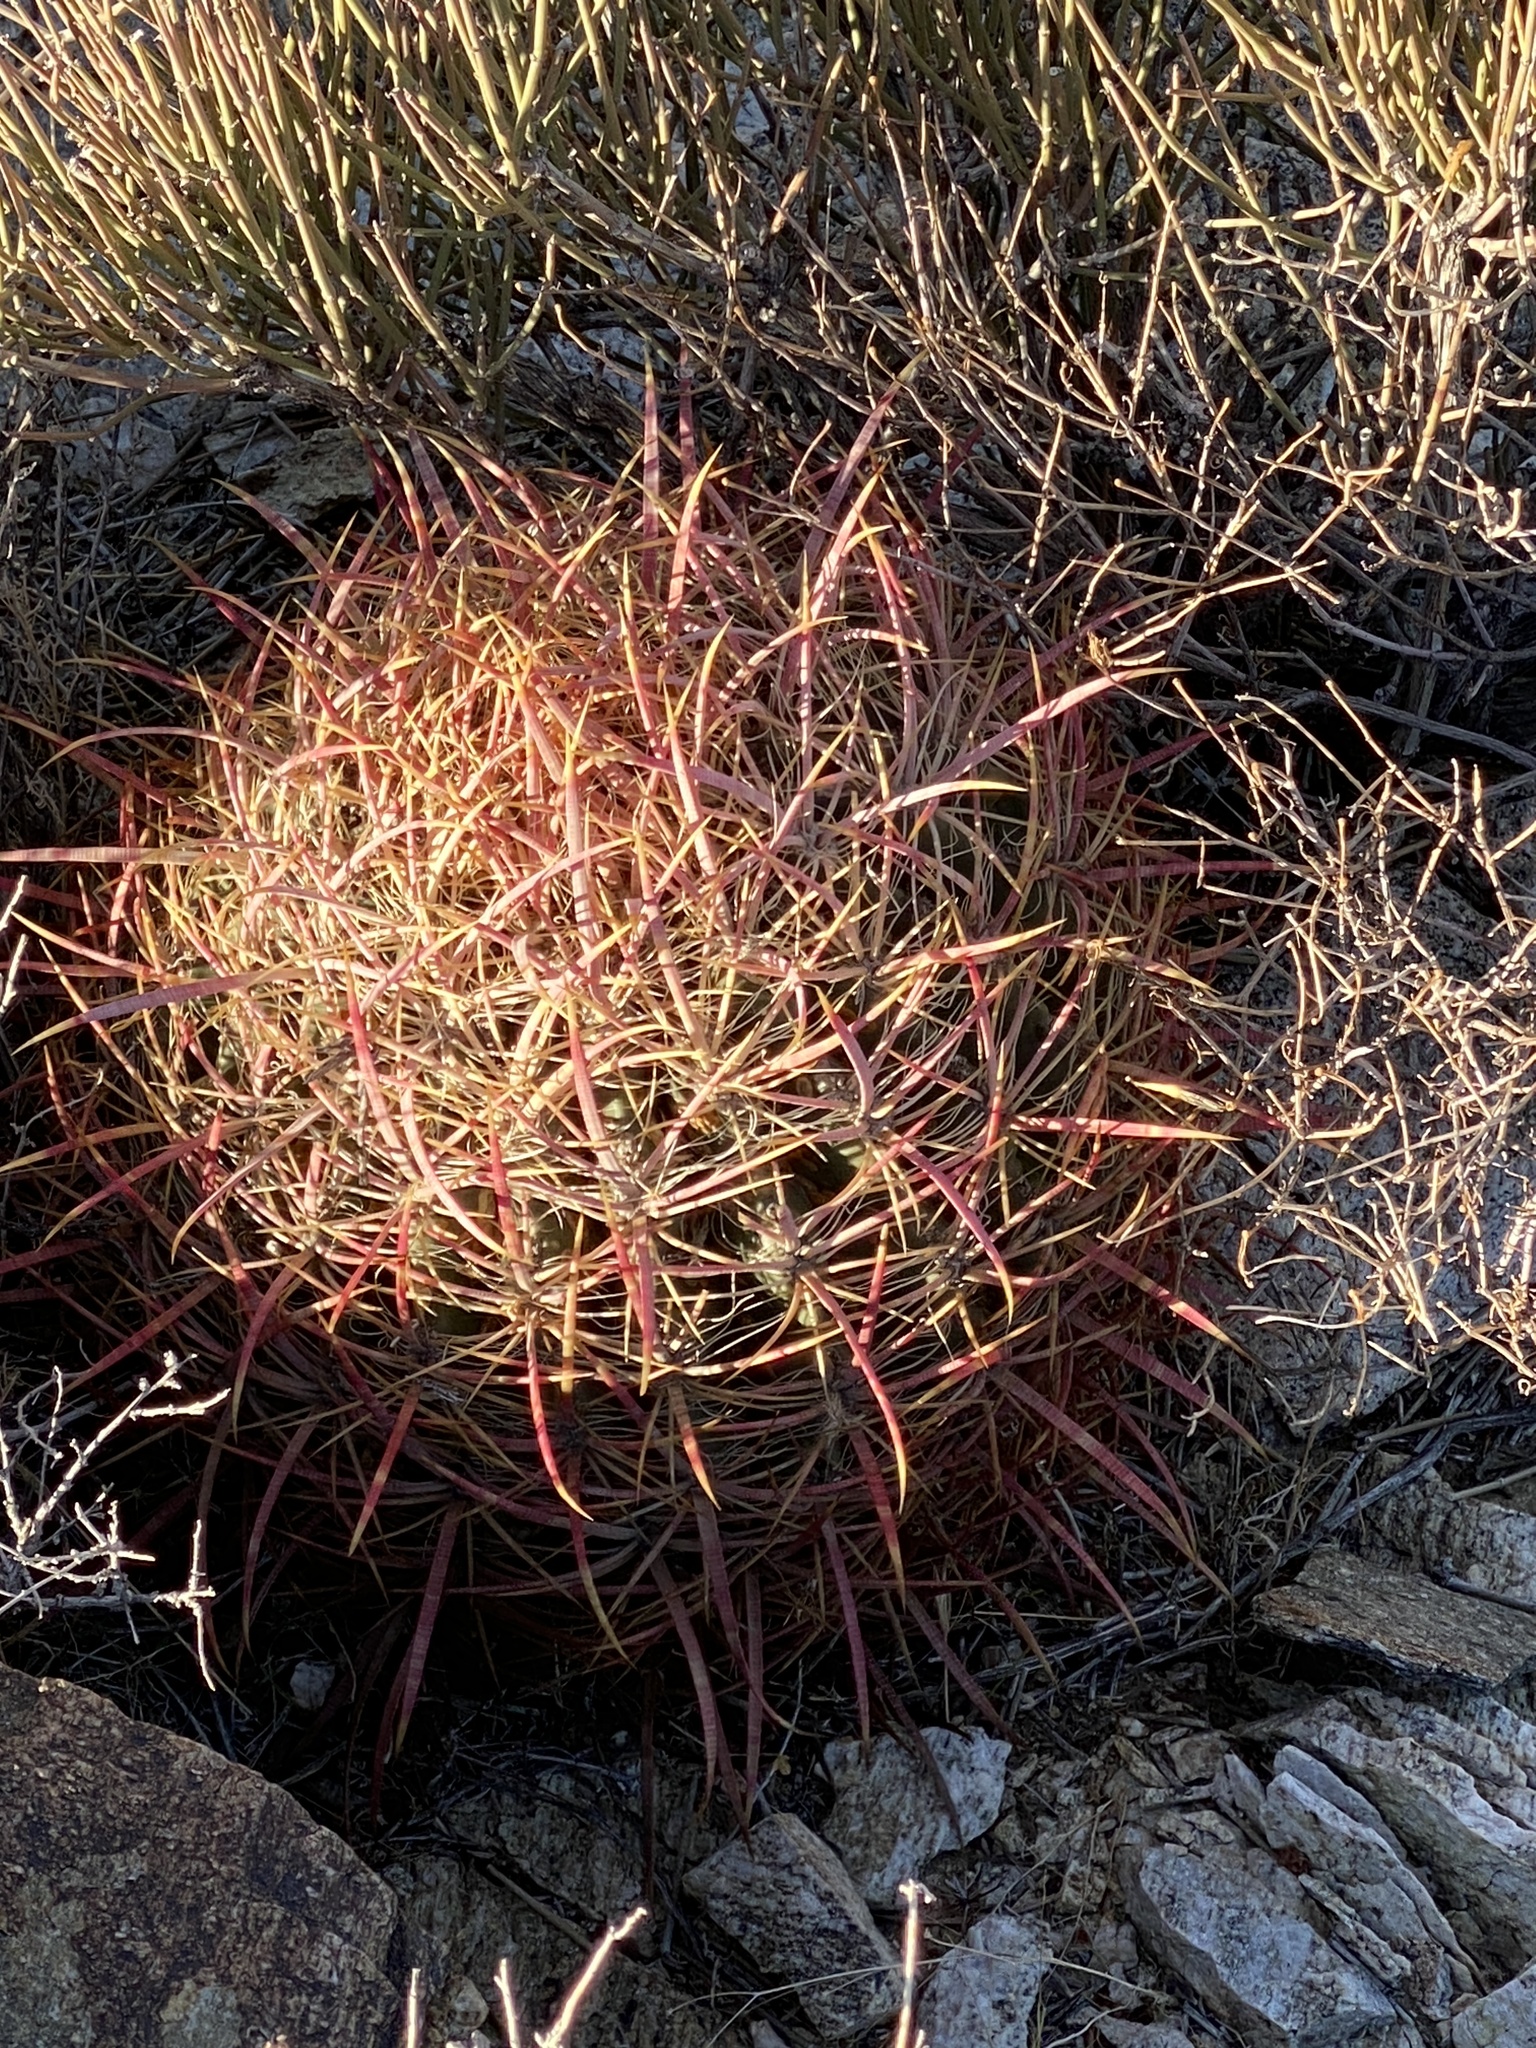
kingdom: Plantae
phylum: Tracheophyta
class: Magnoliopsida
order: Caryophyllales
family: Cactaceae
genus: Ferocactus
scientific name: Ferocactus cylindraceus
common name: California barrel cactus
